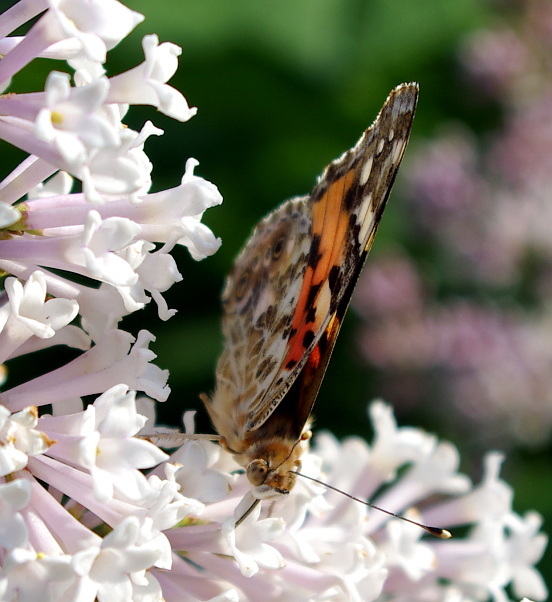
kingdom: Animalia
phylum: Arthropoda
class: Insecta
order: Lepidoptera
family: Nymphalidae
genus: Vanessa
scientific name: Vanessa cardui
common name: Painted lady
